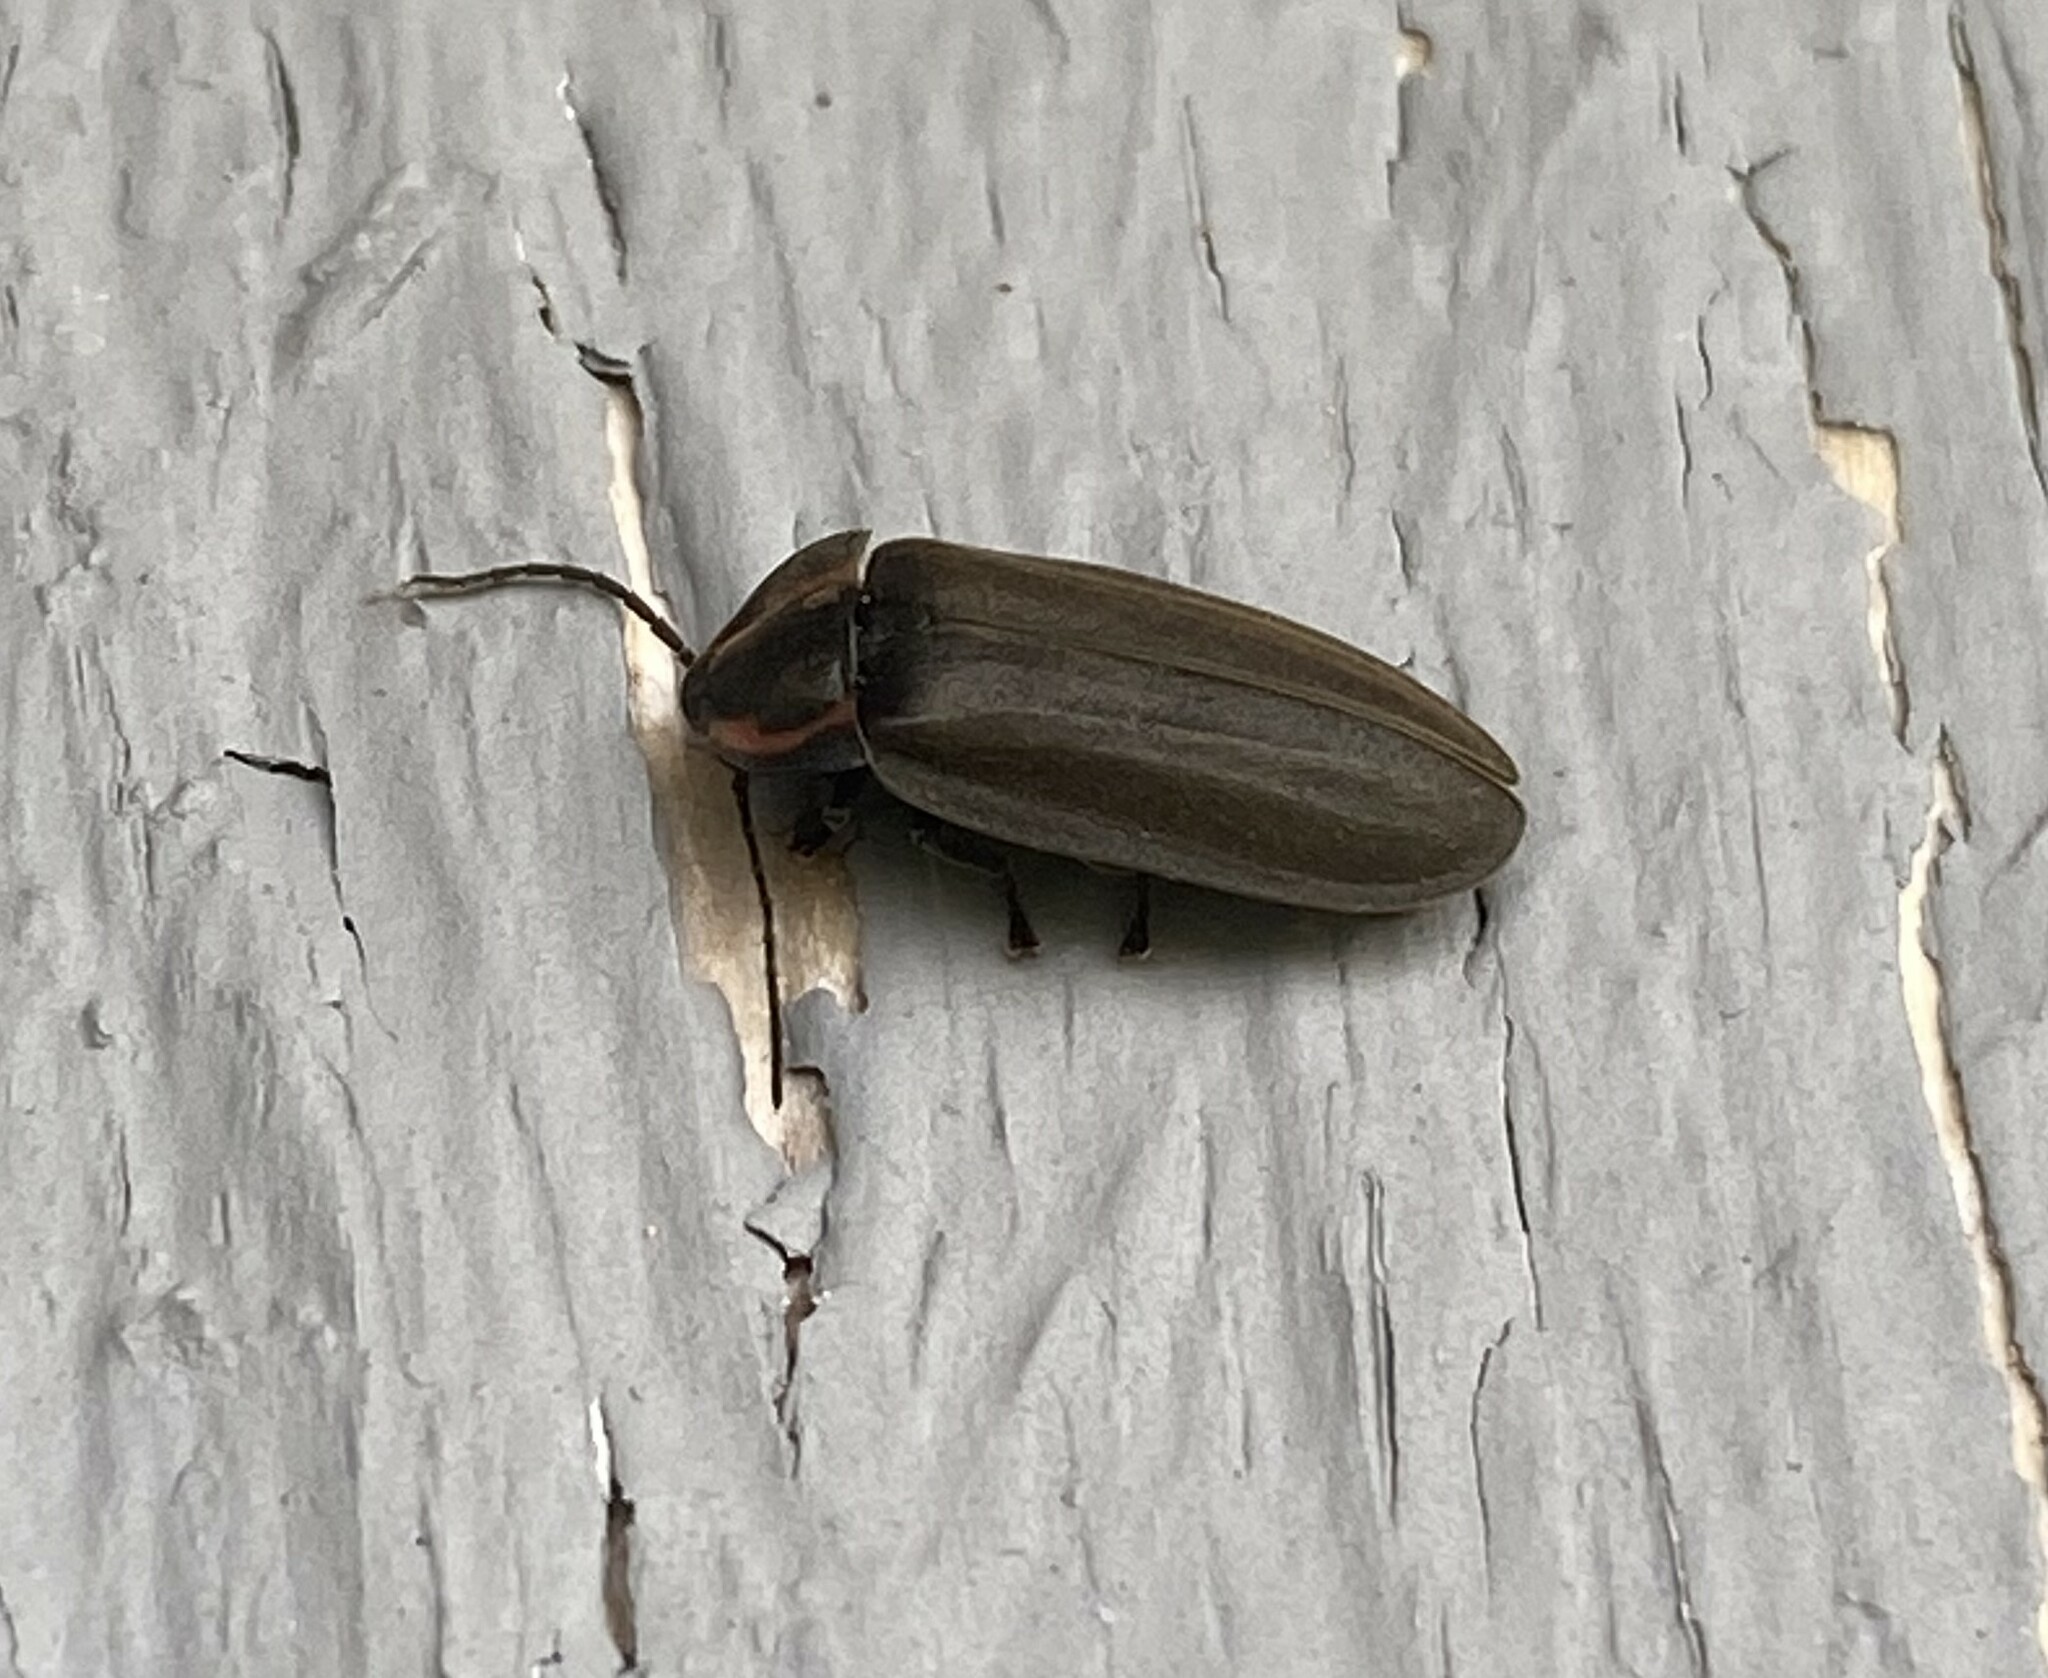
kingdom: Animalia
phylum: Arthropoda
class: Insecta
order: Coleoptera
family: Lampyridae
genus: Photinus
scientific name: Photinus corrusca
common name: Winter firefly
